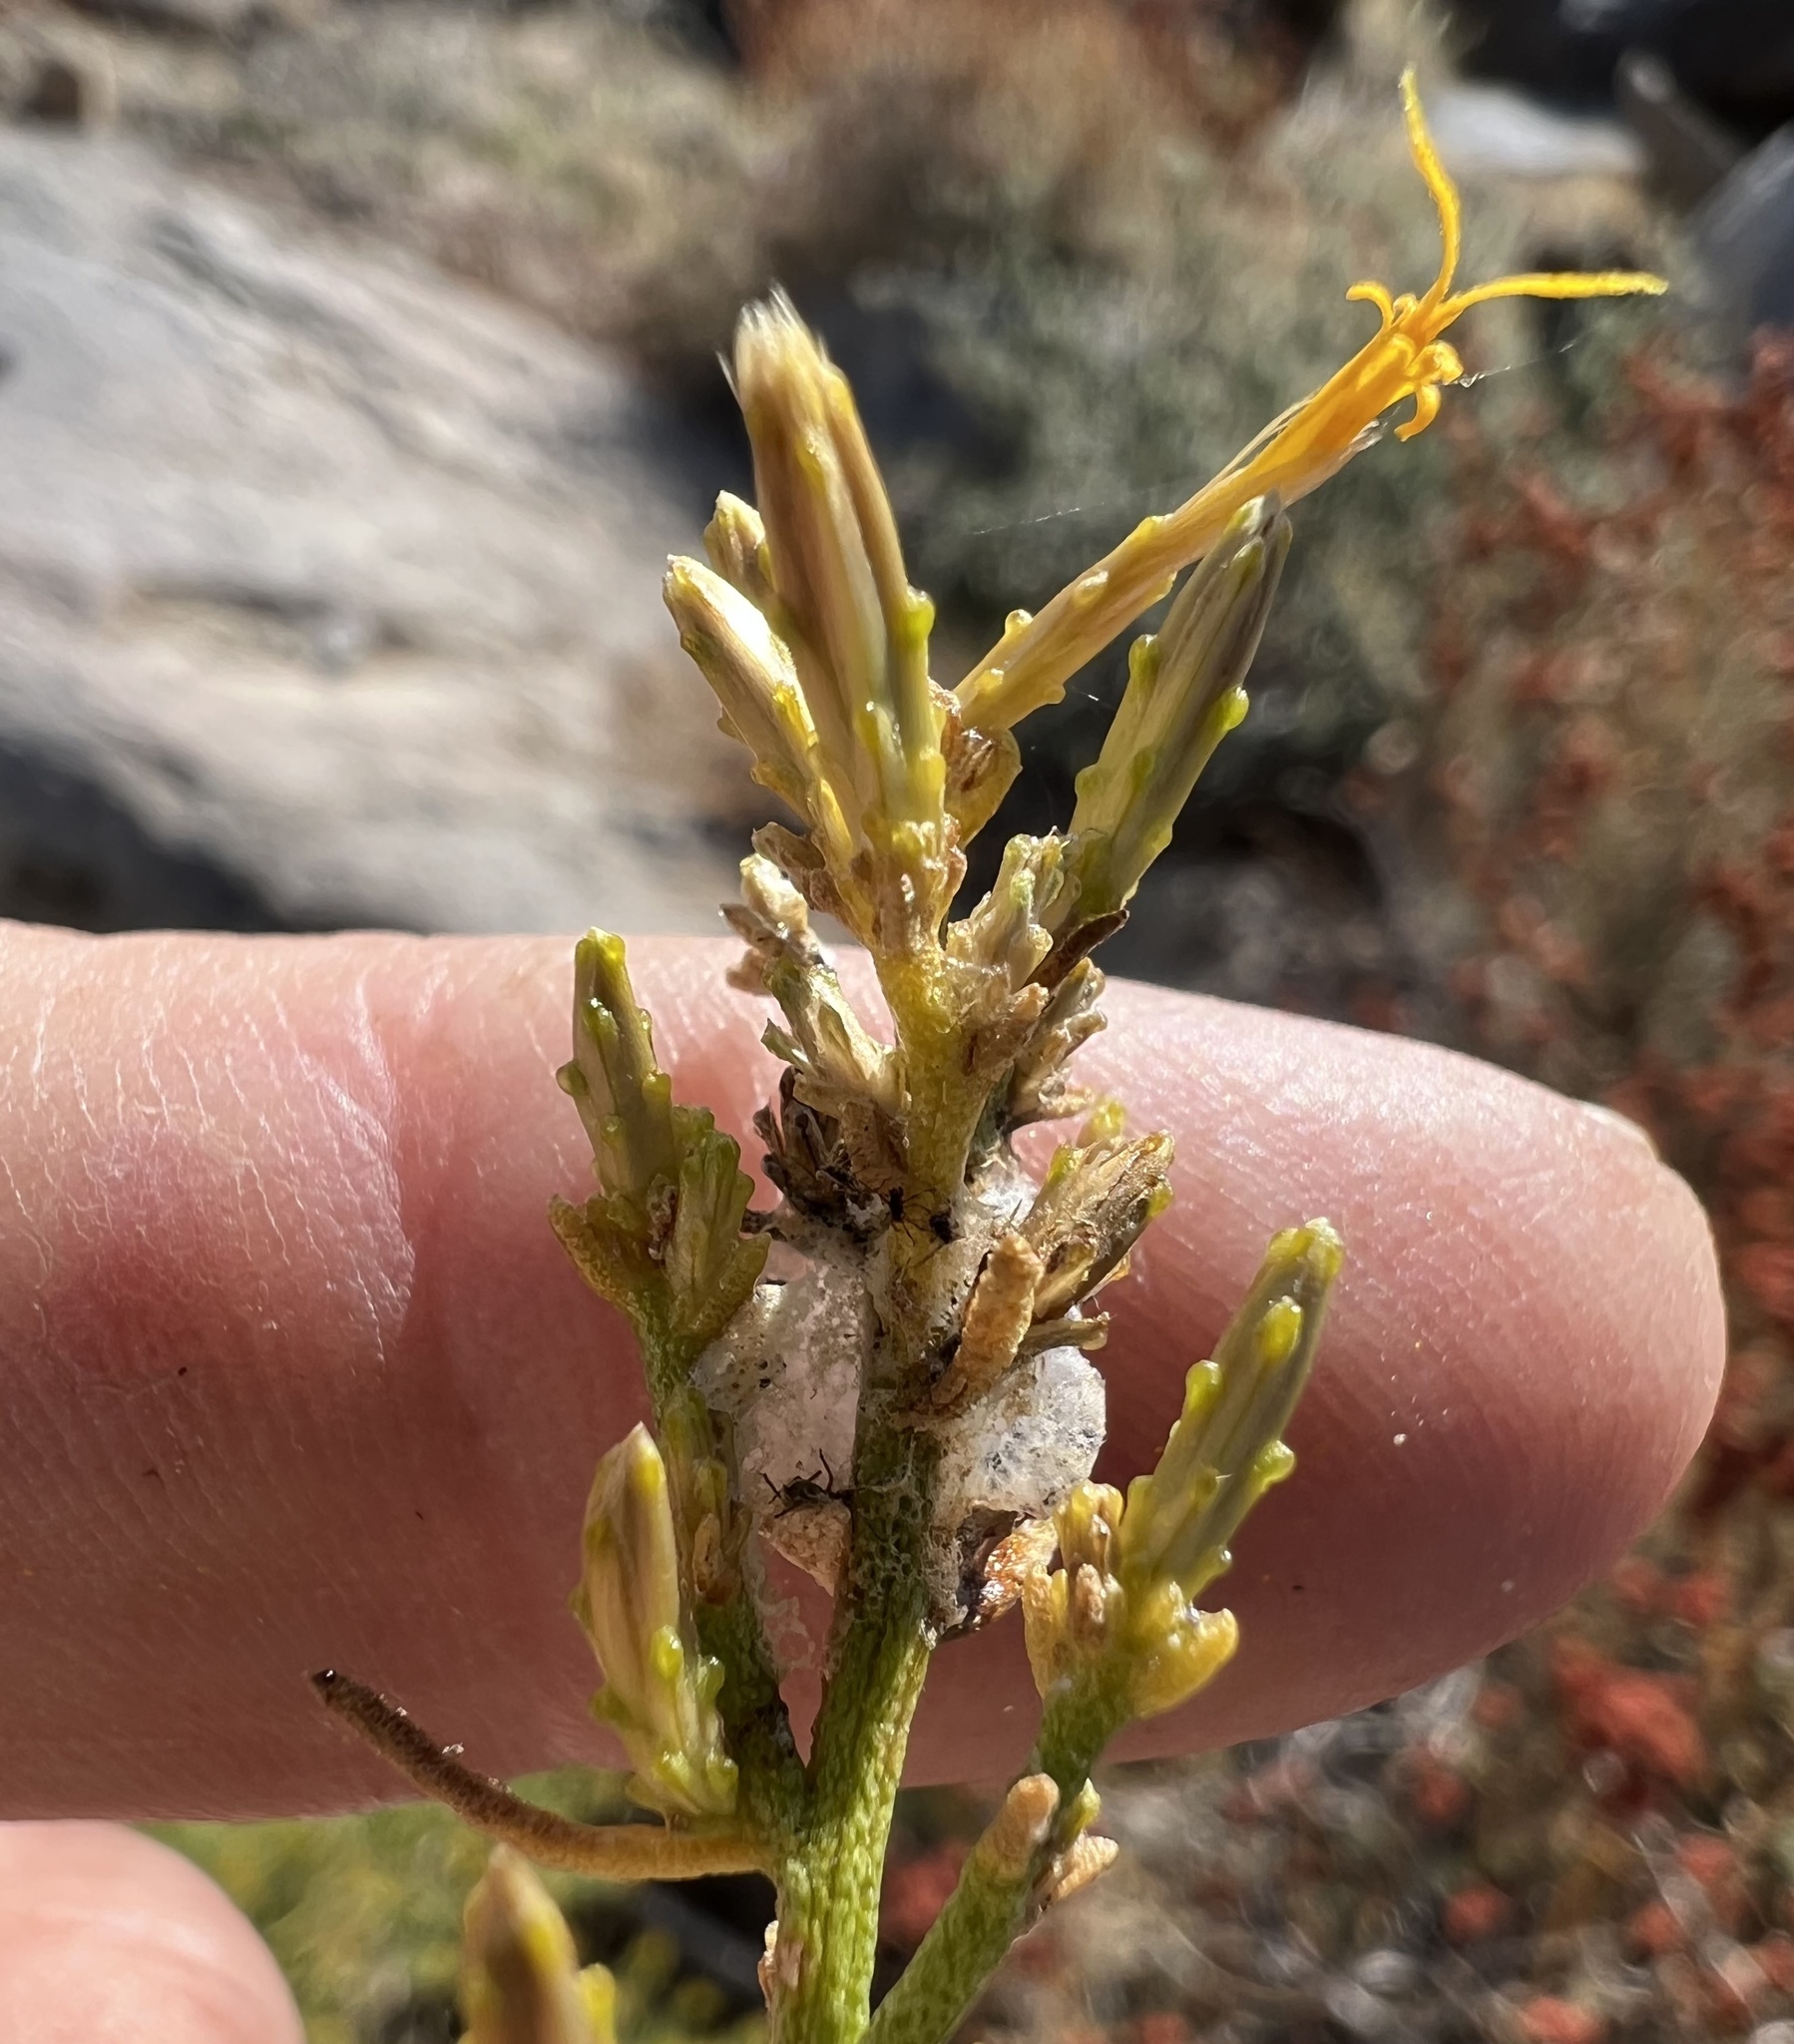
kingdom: Plantae
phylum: Tracheophyta
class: Magnoliopsida
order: Asterales
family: Asteraceae
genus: Ericameria
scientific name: Ericameria teretifolia
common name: Round-leaf rabbitbrush
